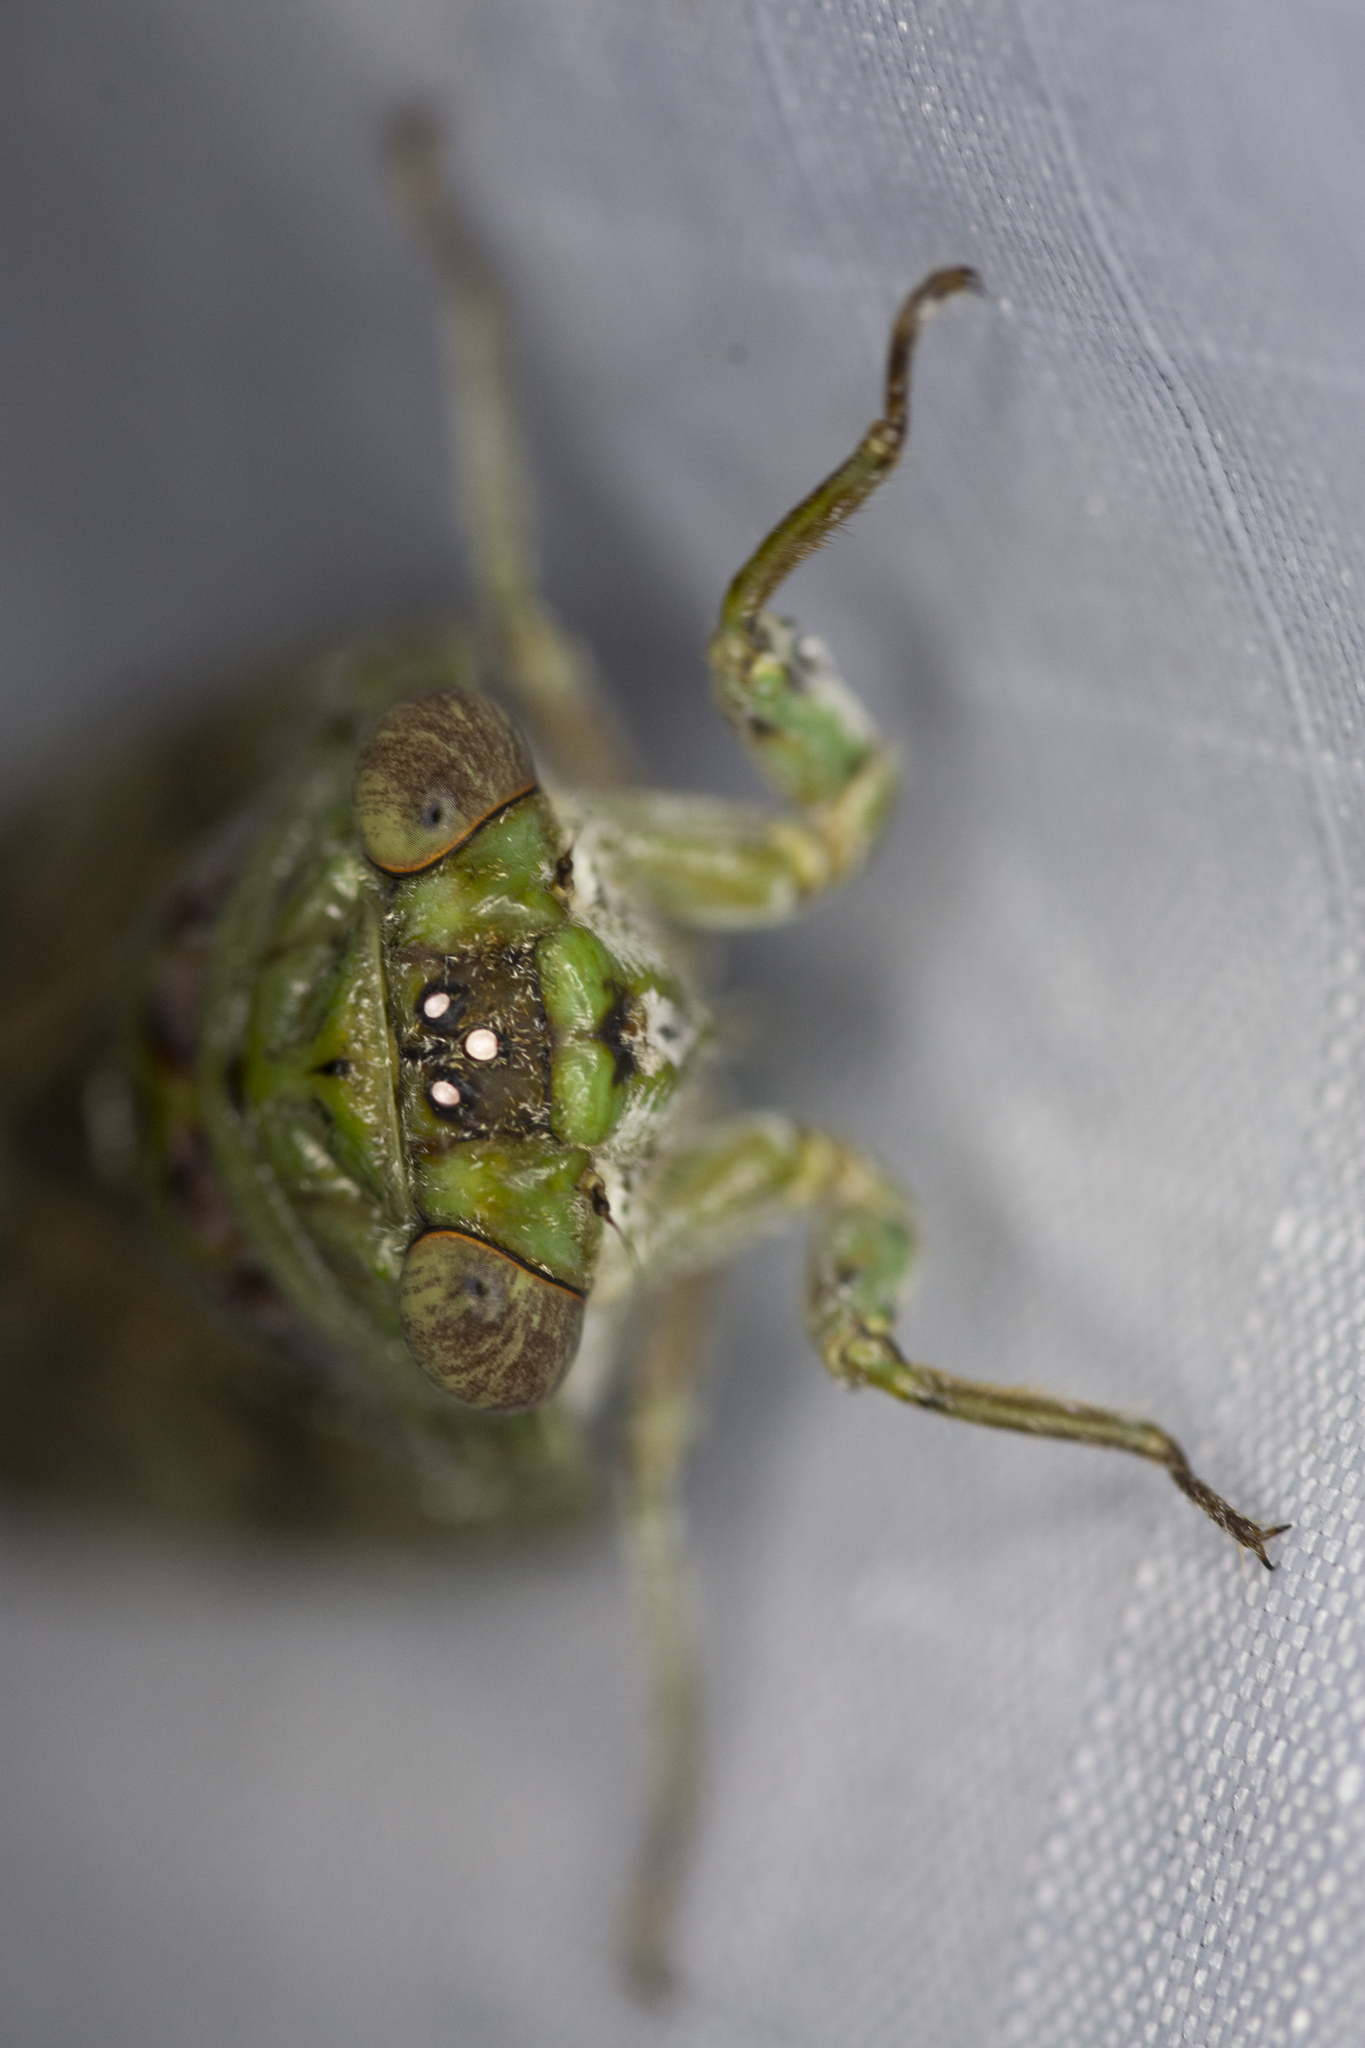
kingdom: Animalia
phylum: Arthropoda
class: Insecta
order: Hemiptera
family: Cicadidae
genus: Hamza
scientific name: Hamza ciliaris
